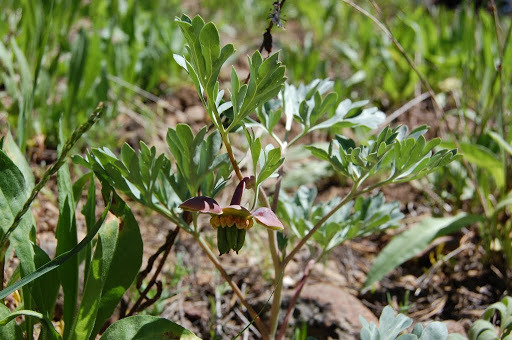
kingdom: Plantae
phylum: Tracheophyta
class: Magnoliopsida
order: Saxifragales
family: Paeoniaceae
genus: Paeonia
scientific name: Paeonia brownii
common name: Brown's peony
